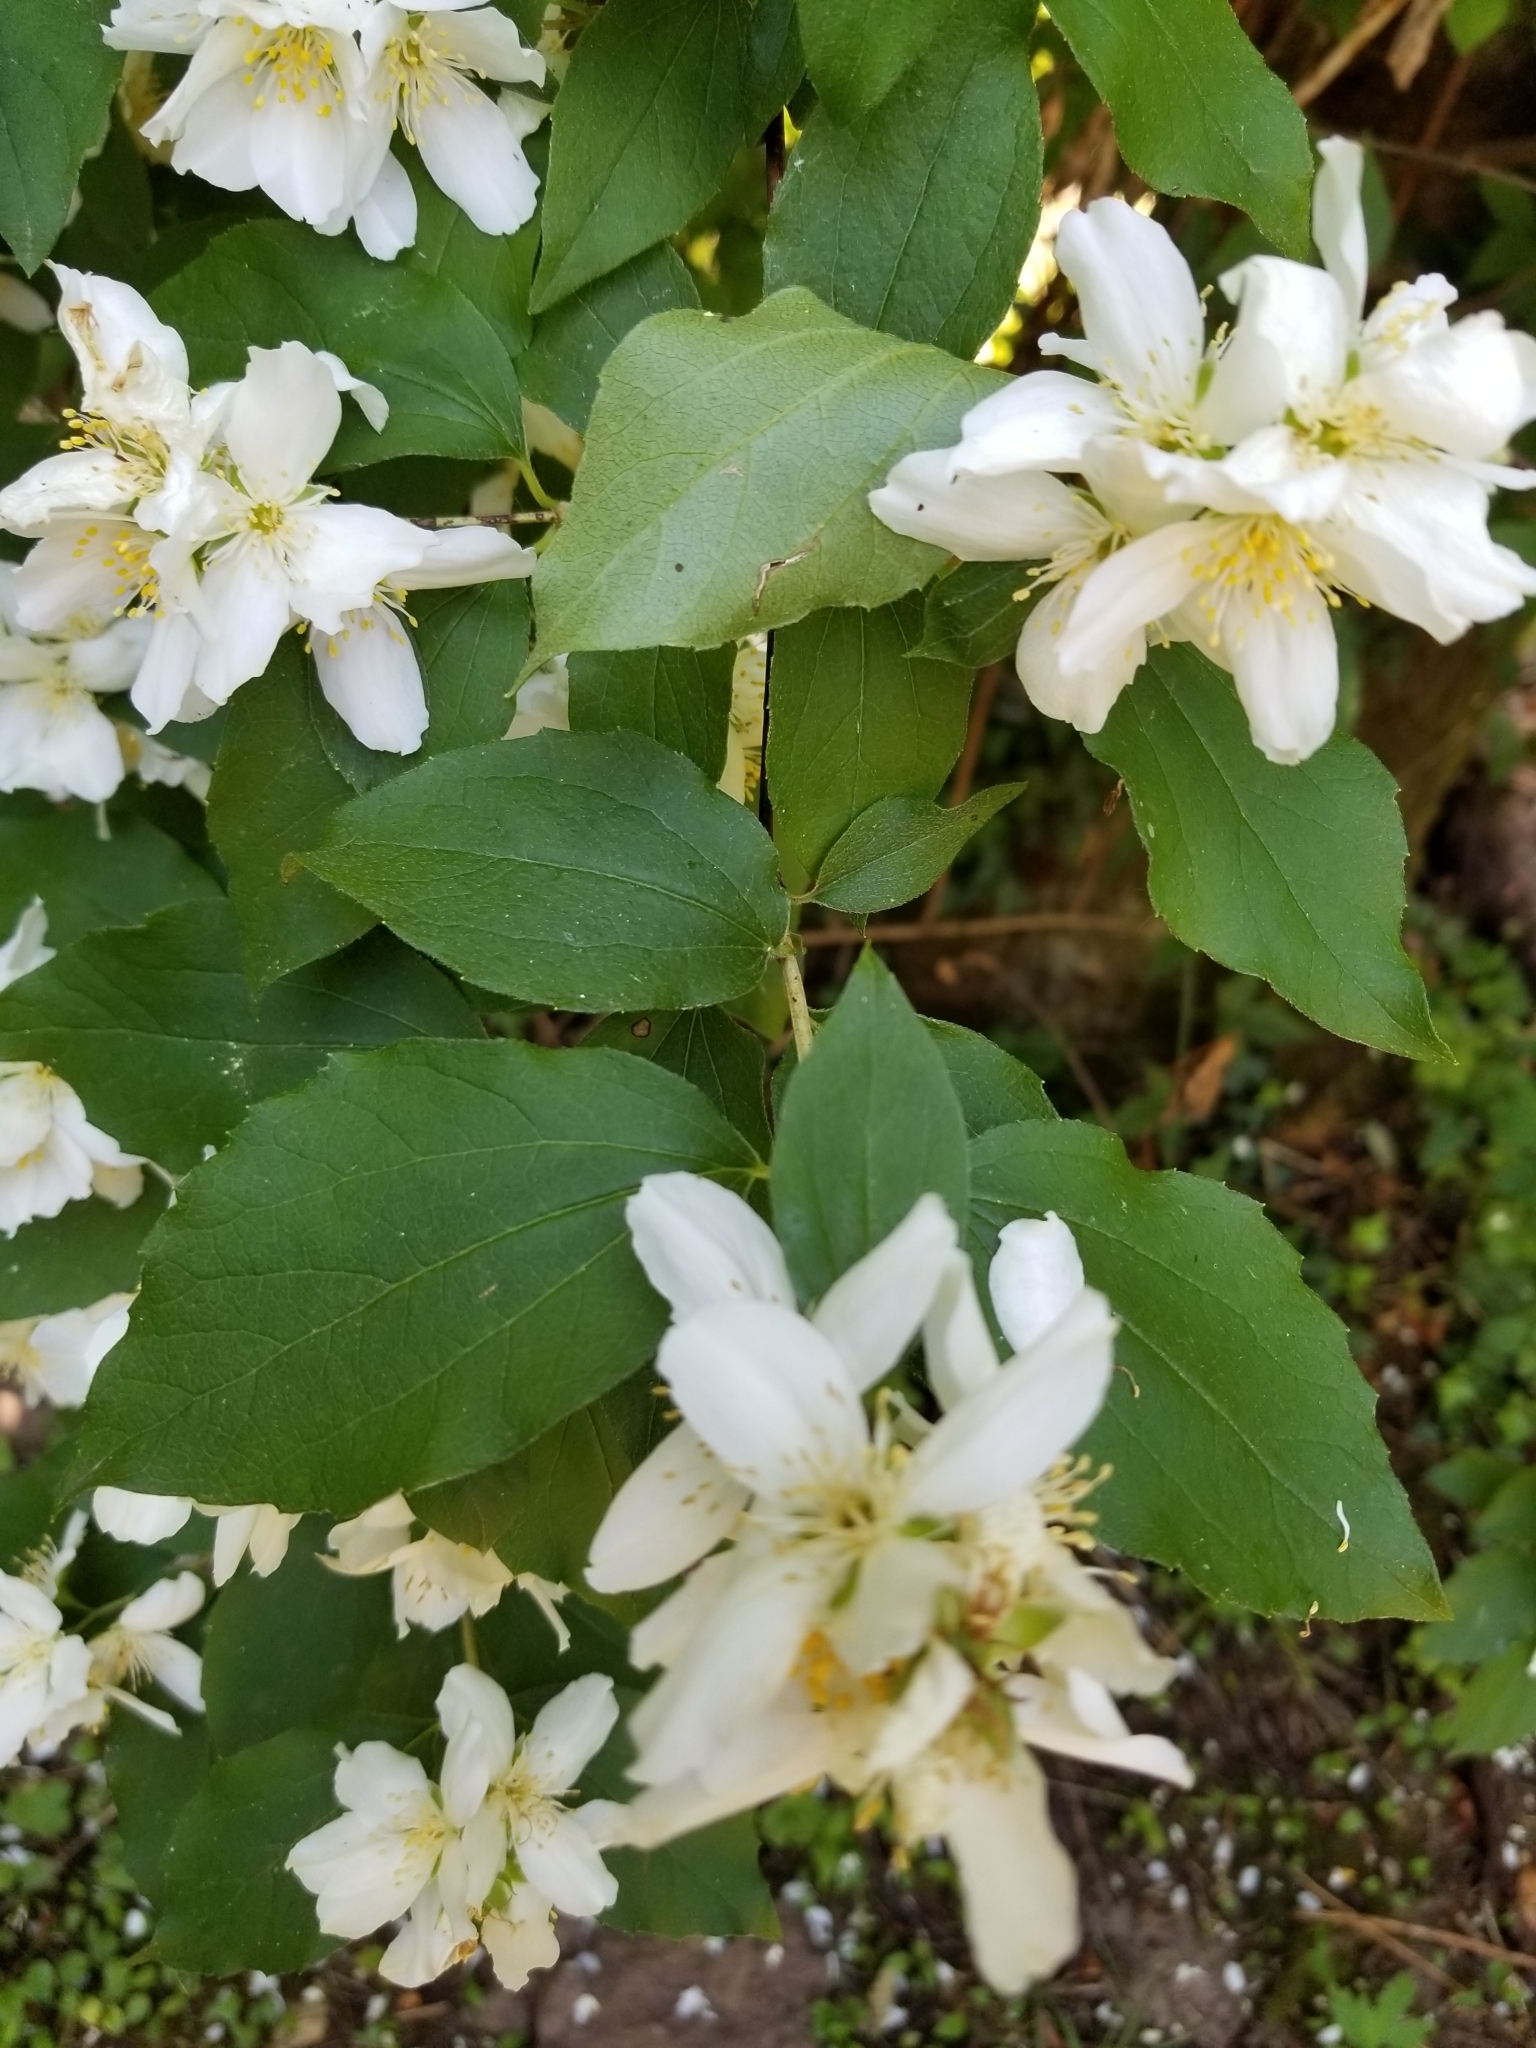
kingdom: Plantae
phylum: Tracheophyta
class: Magnoliopsida
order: Cornales
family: Hydrangeaceae
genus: Philadelphus
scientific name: Philadelphus lewisii
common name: Lewis's mock orange
